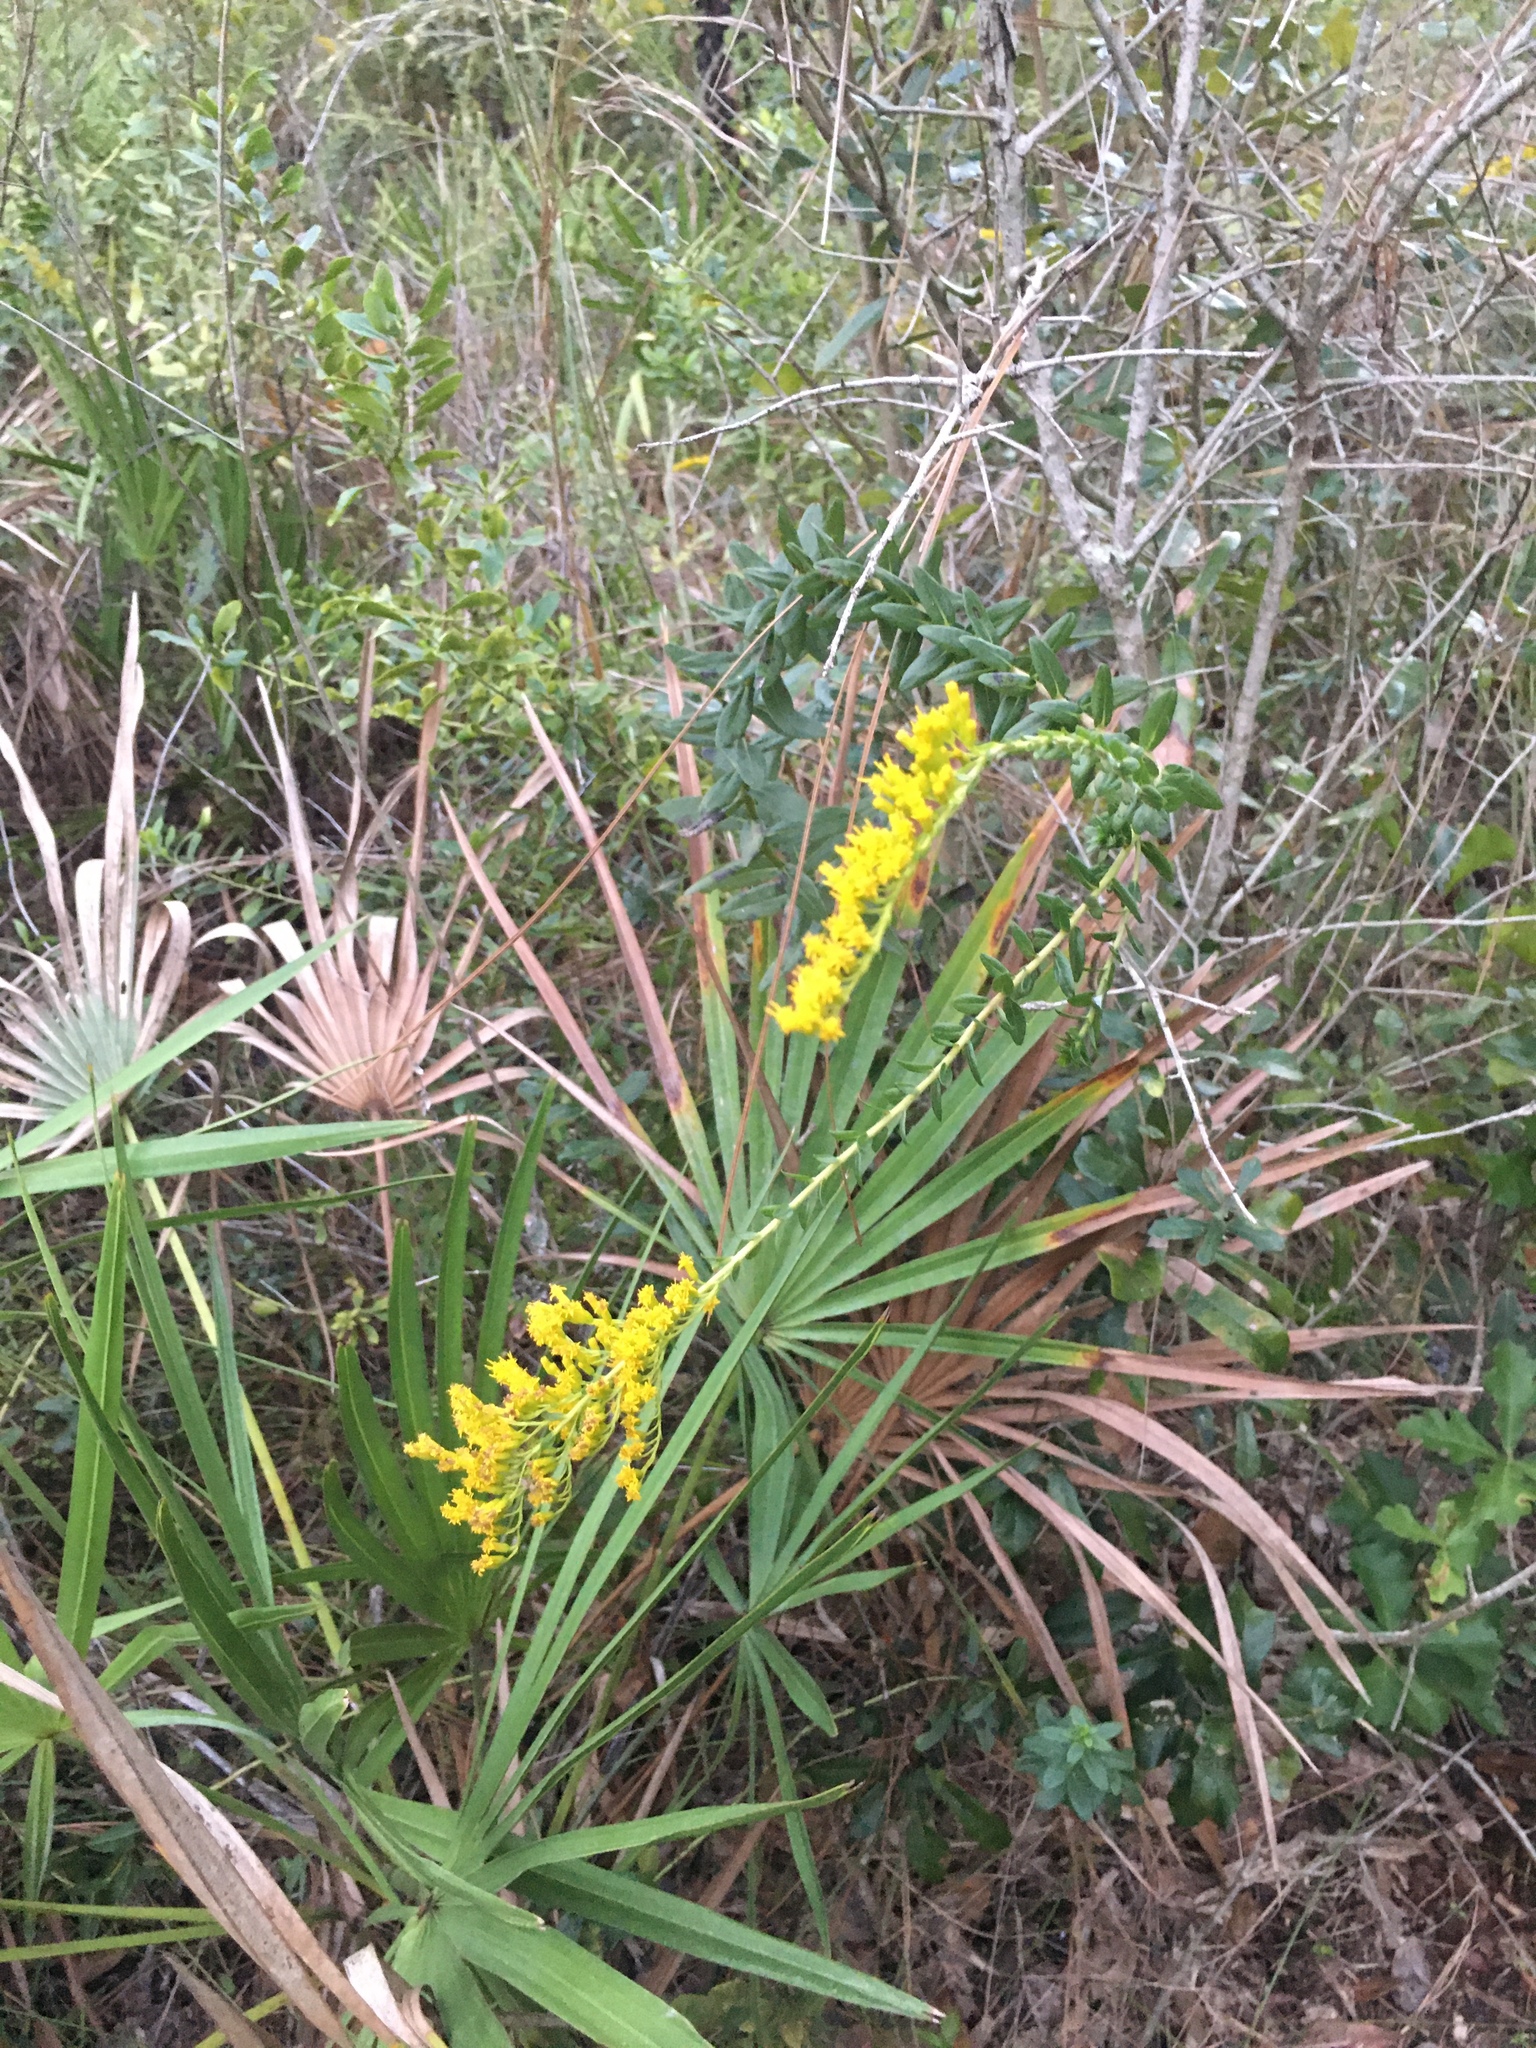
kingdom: Plantae
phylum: Tracheophyta
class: Magnoliopsida
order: Asterales
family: Asteraceae
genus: Solidago
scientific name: Solidago fistulosa
